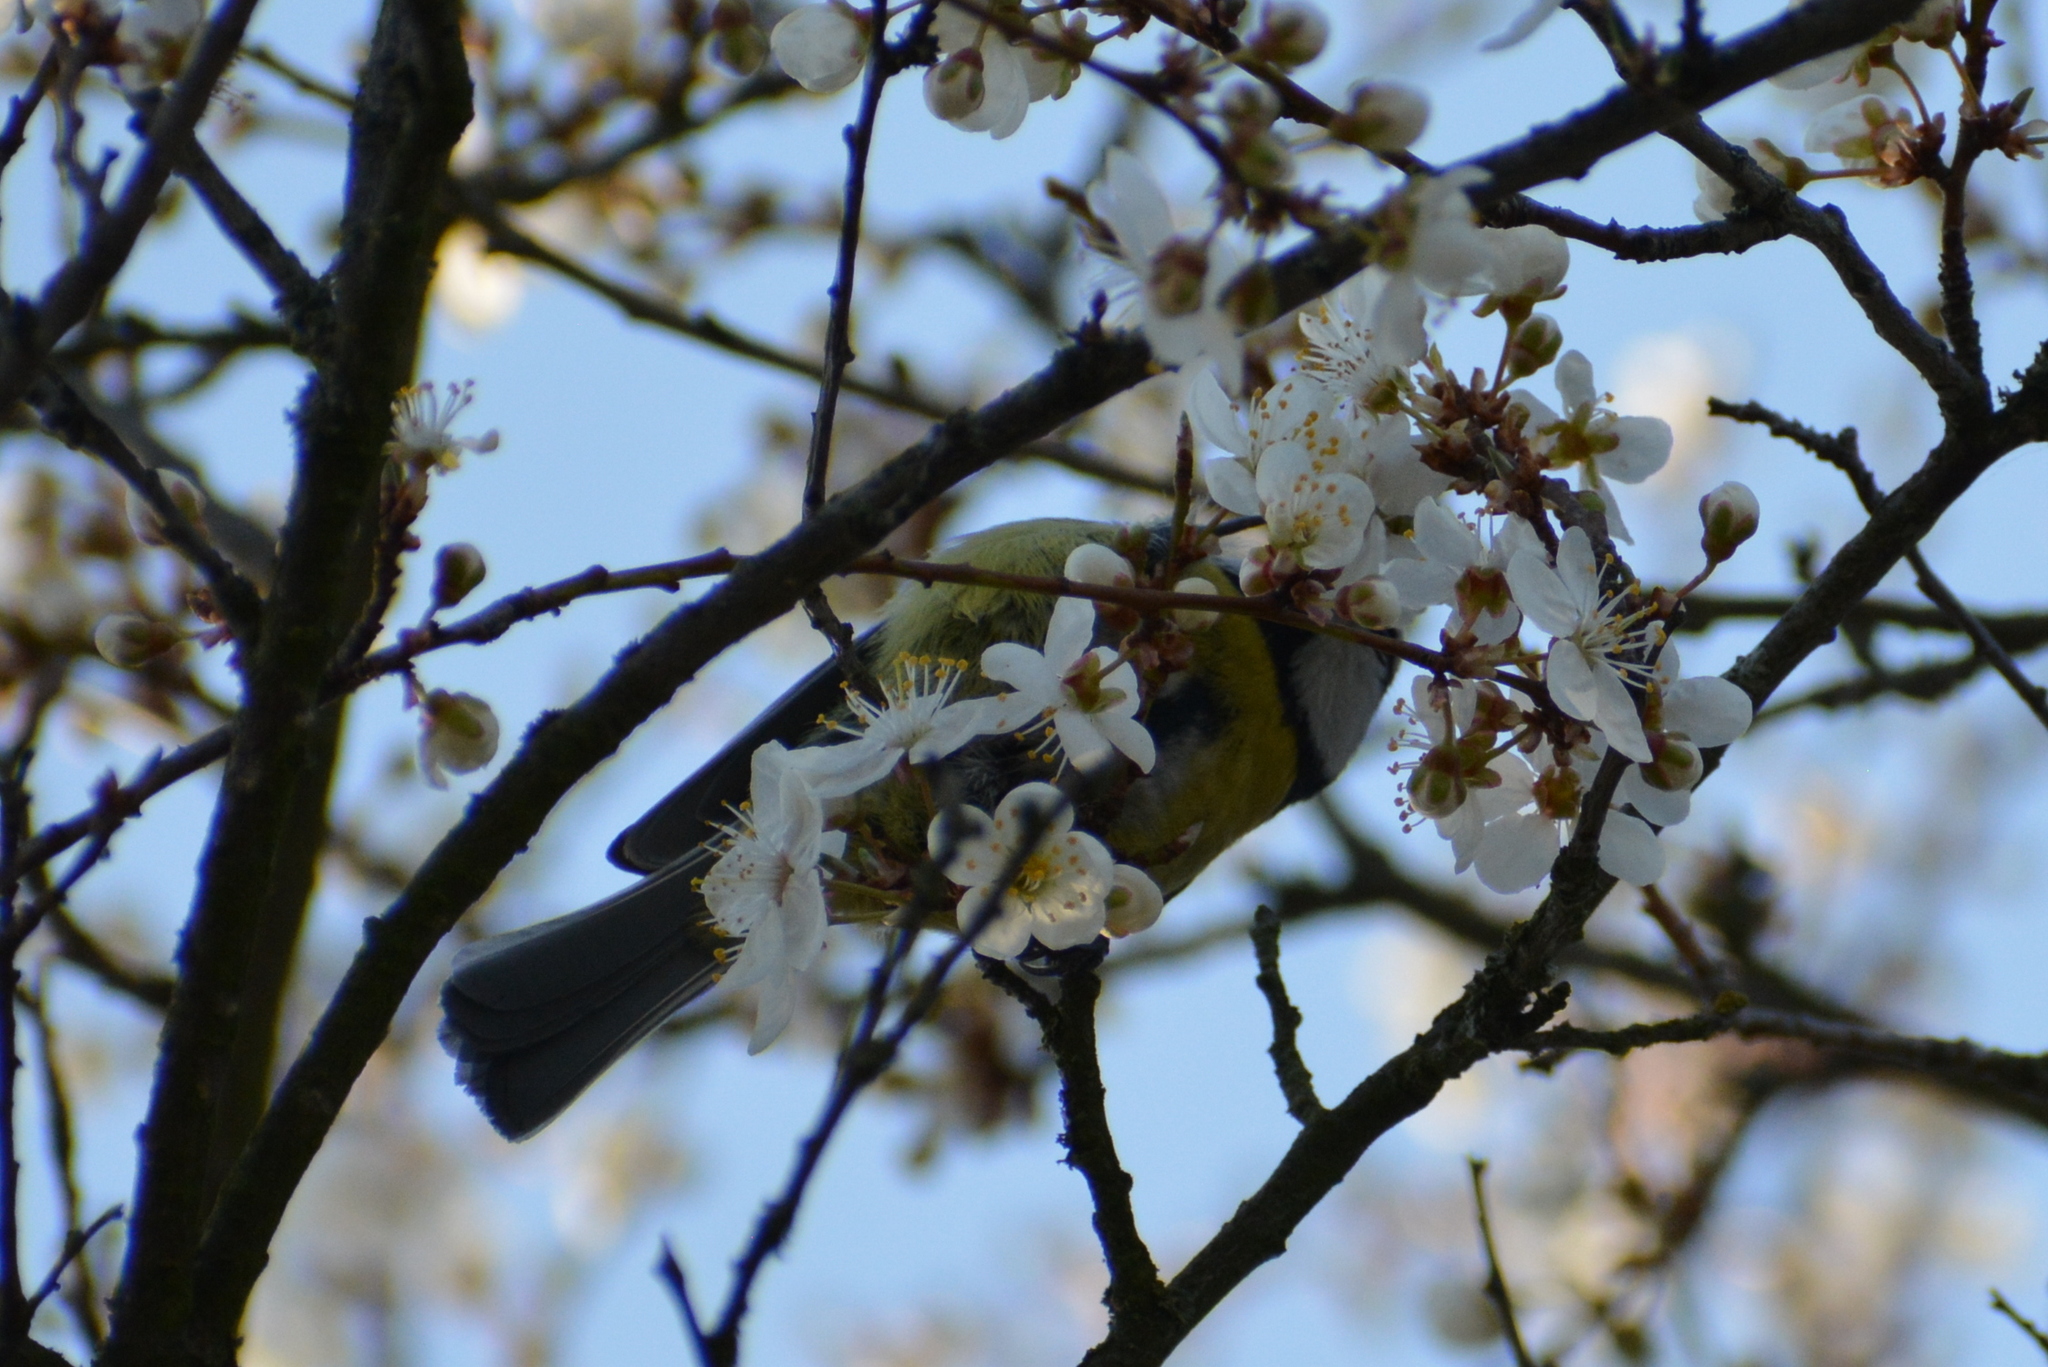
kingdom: Animalia
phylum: Chordata
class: Aves
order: Passeriformes
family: Paridae
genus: Cyanistes
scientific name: Cyanistes caeruleus
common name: Eurasian blue tit
